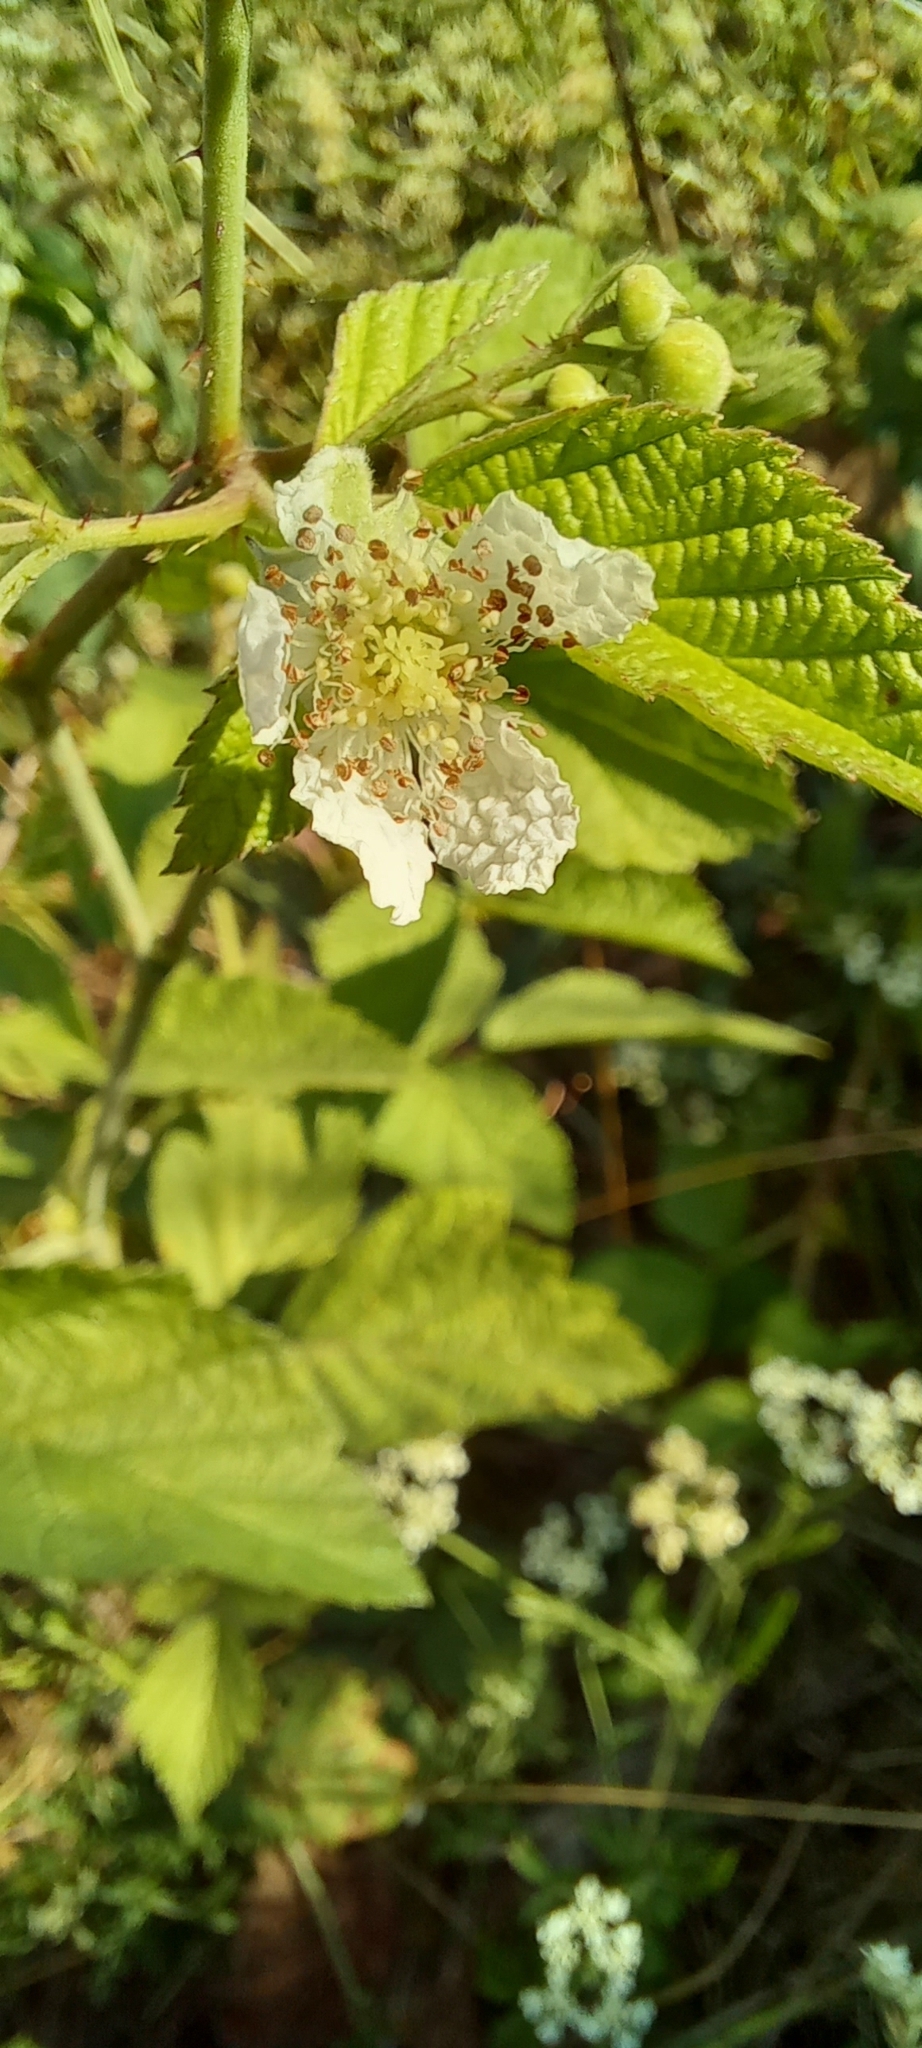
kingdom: Plantae
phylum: Tracheophyta
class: Magnoliopsida
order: Rosales
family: Rosaceae
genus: Rubus
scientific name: Rubus caesius
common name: Dewberry
